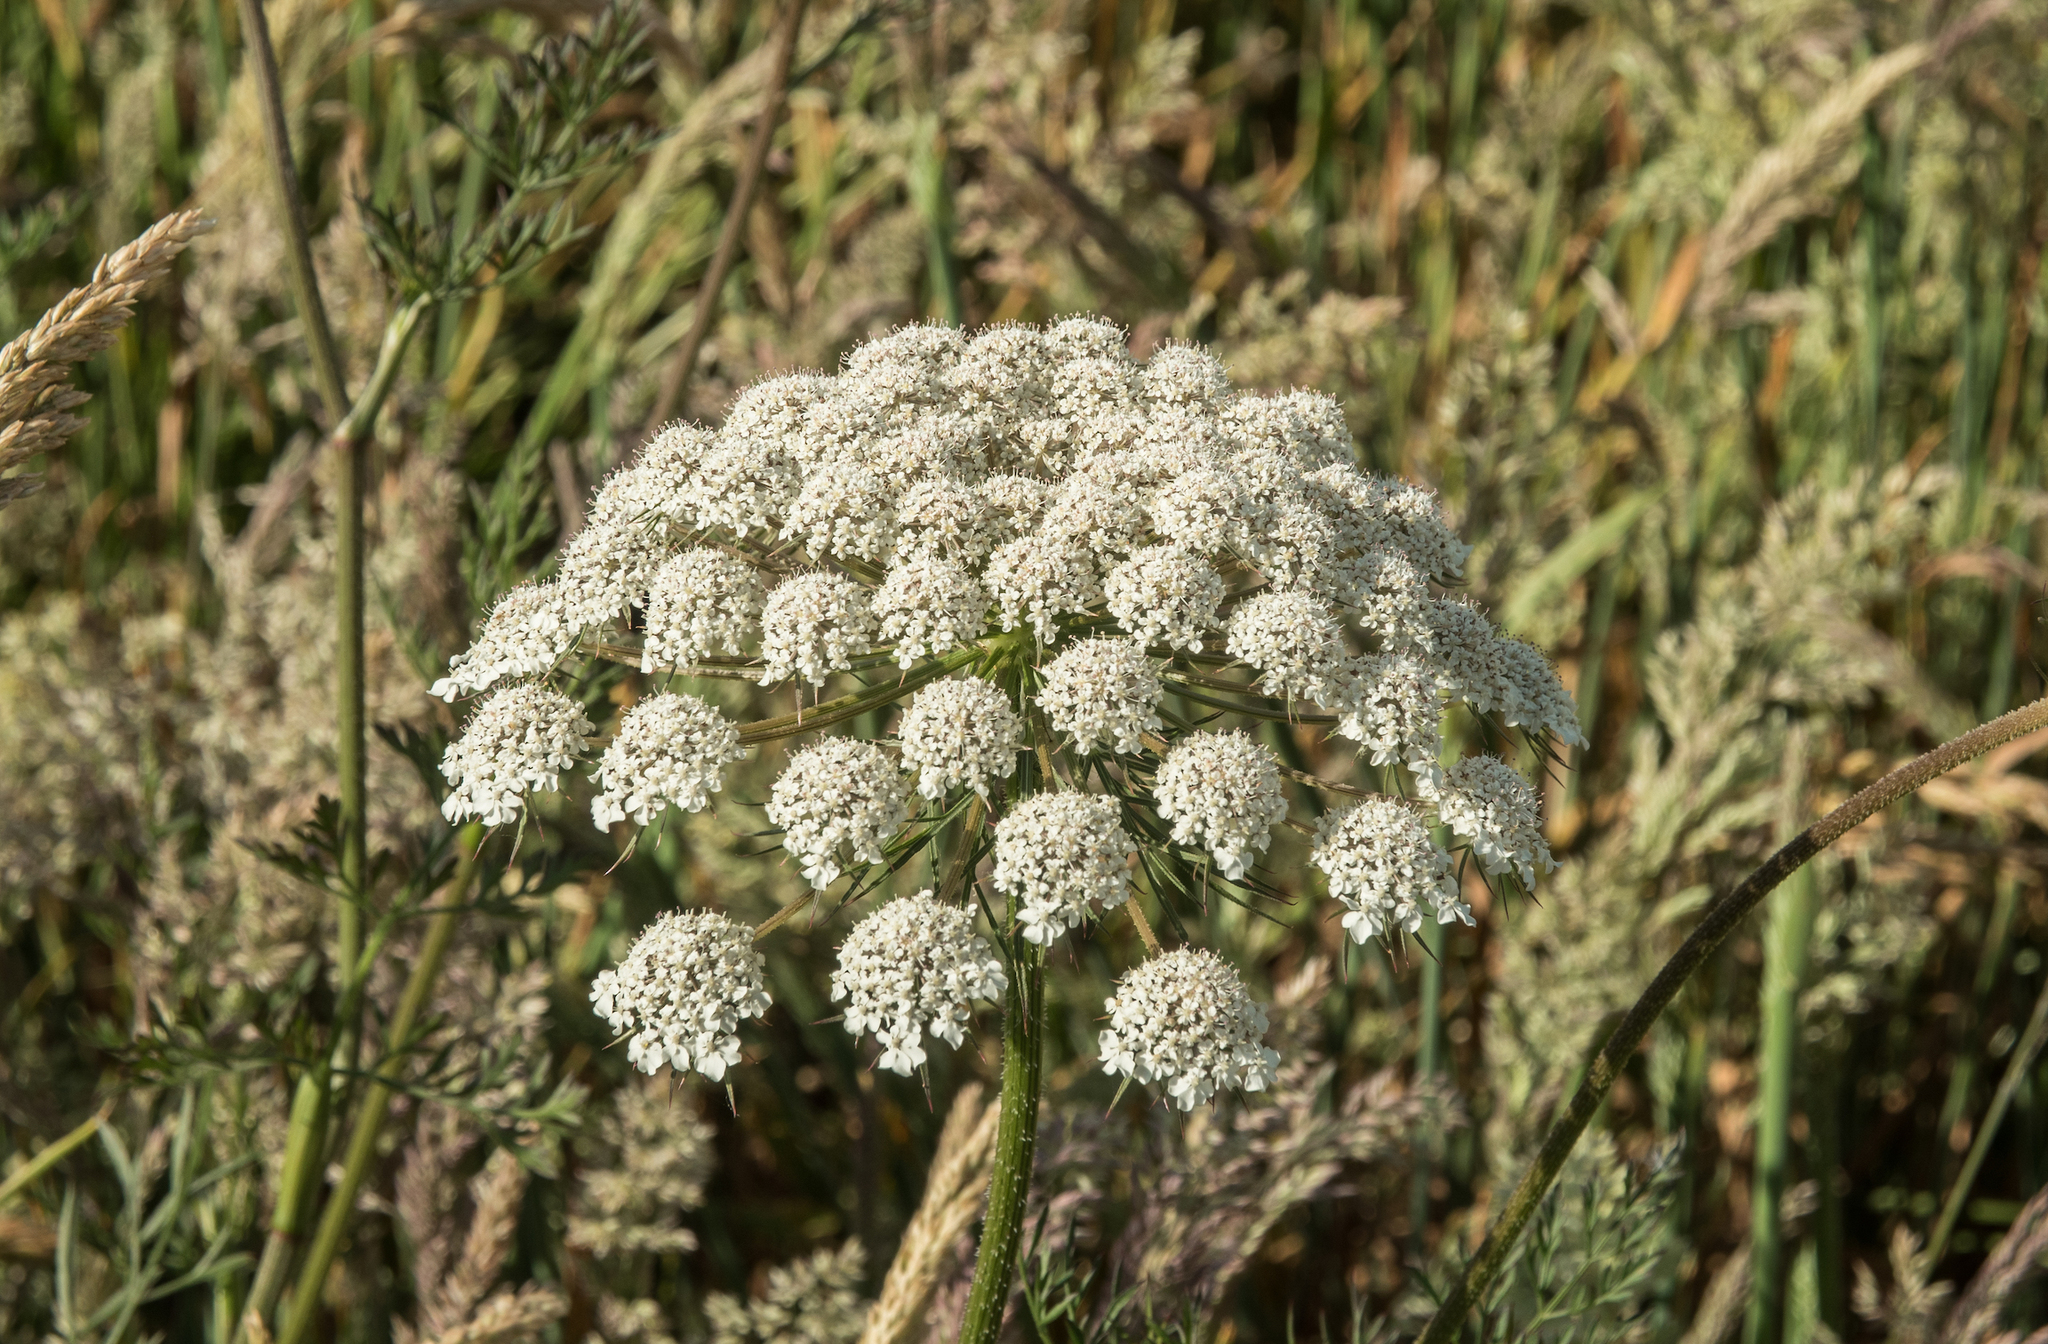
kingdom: Plantae
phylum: Tracheophyta
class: Magnoliopsida
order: Apiales
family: Apiaceae
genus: Daucus
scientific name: Daucus carota
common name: Wild carrot
